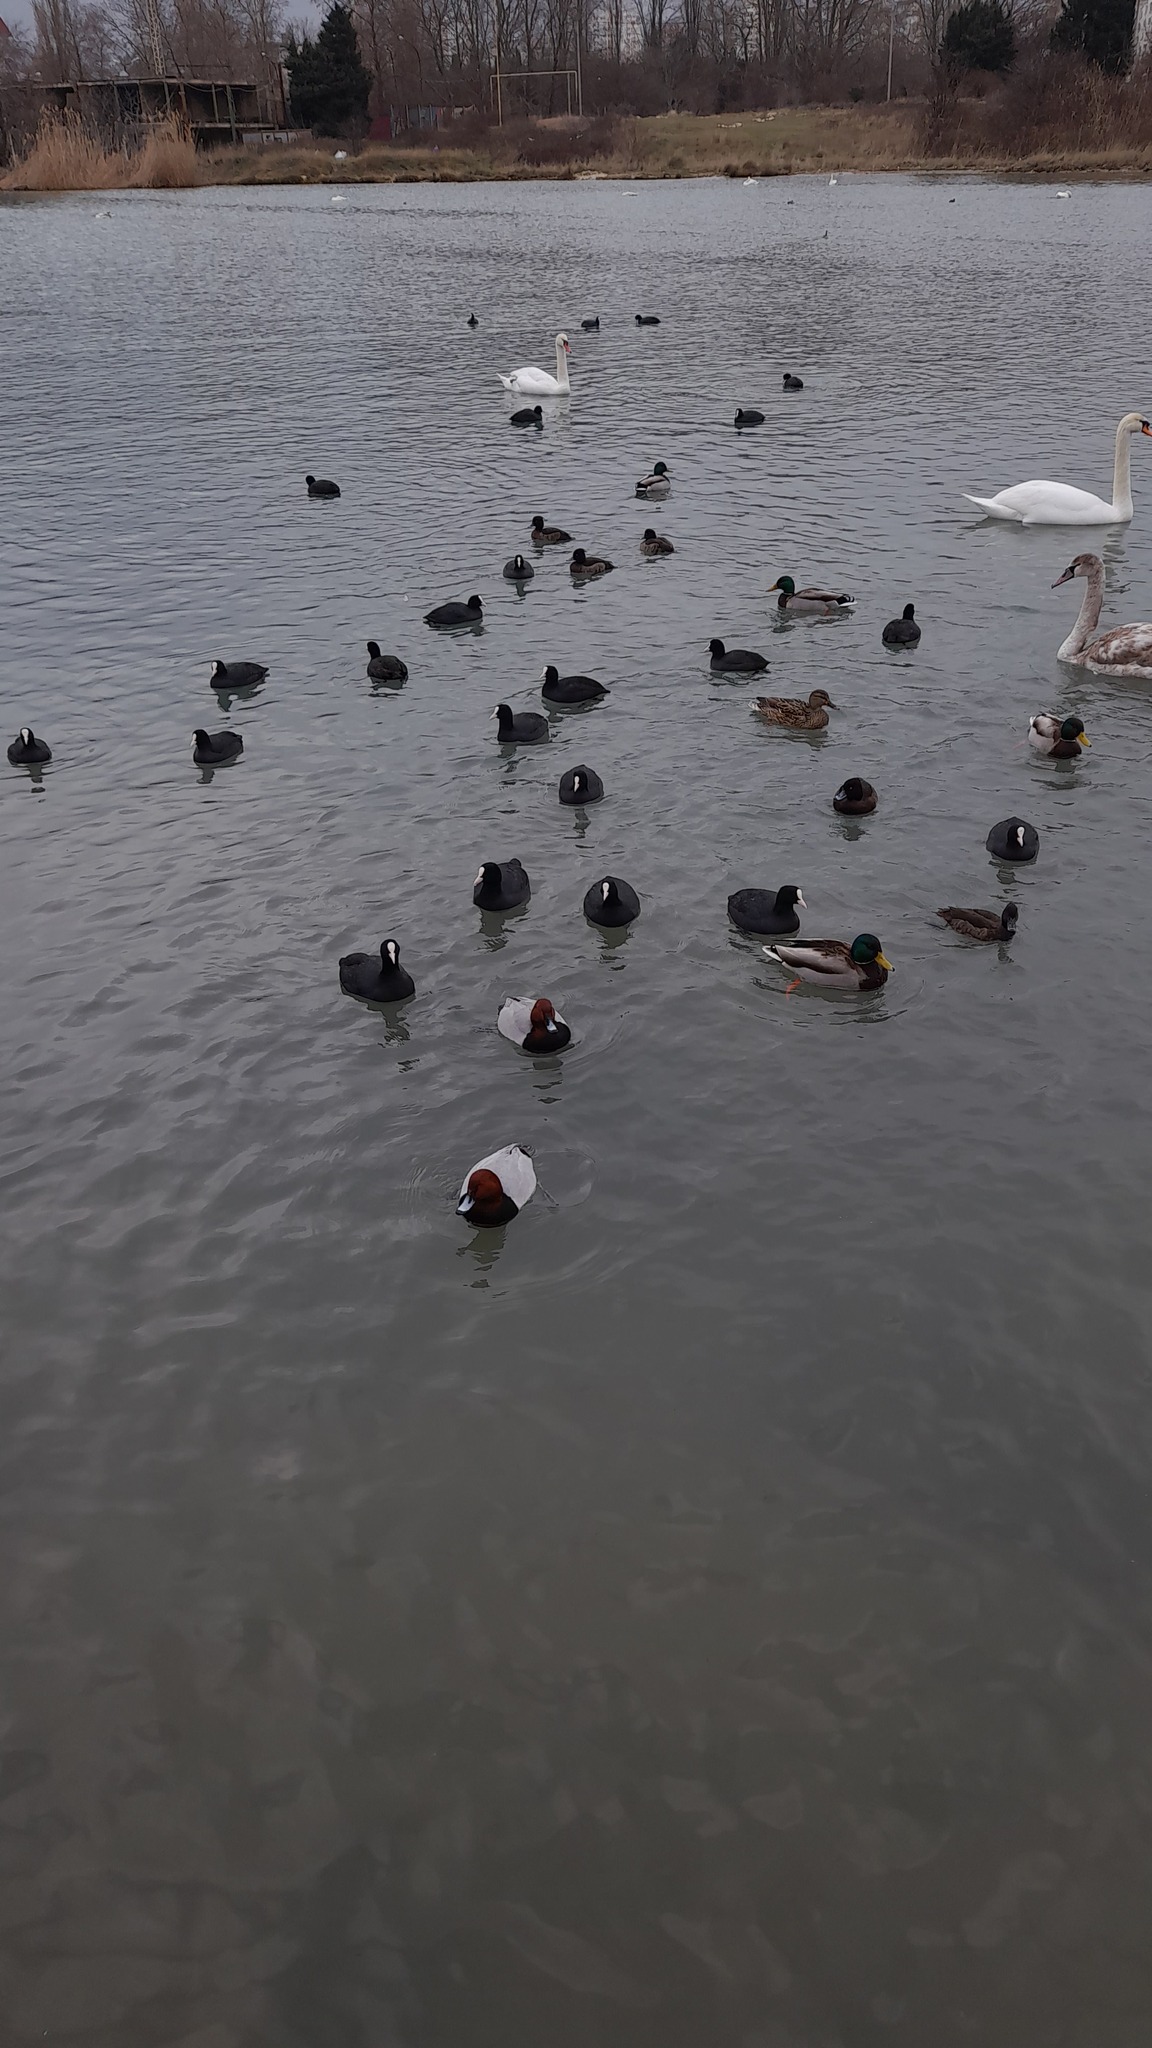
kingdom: Animalia
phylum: Chordata
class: Aves
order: Gruiformes
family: Rallidae
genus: Fulica
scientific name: Fulica atra
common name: Eurasian coot
